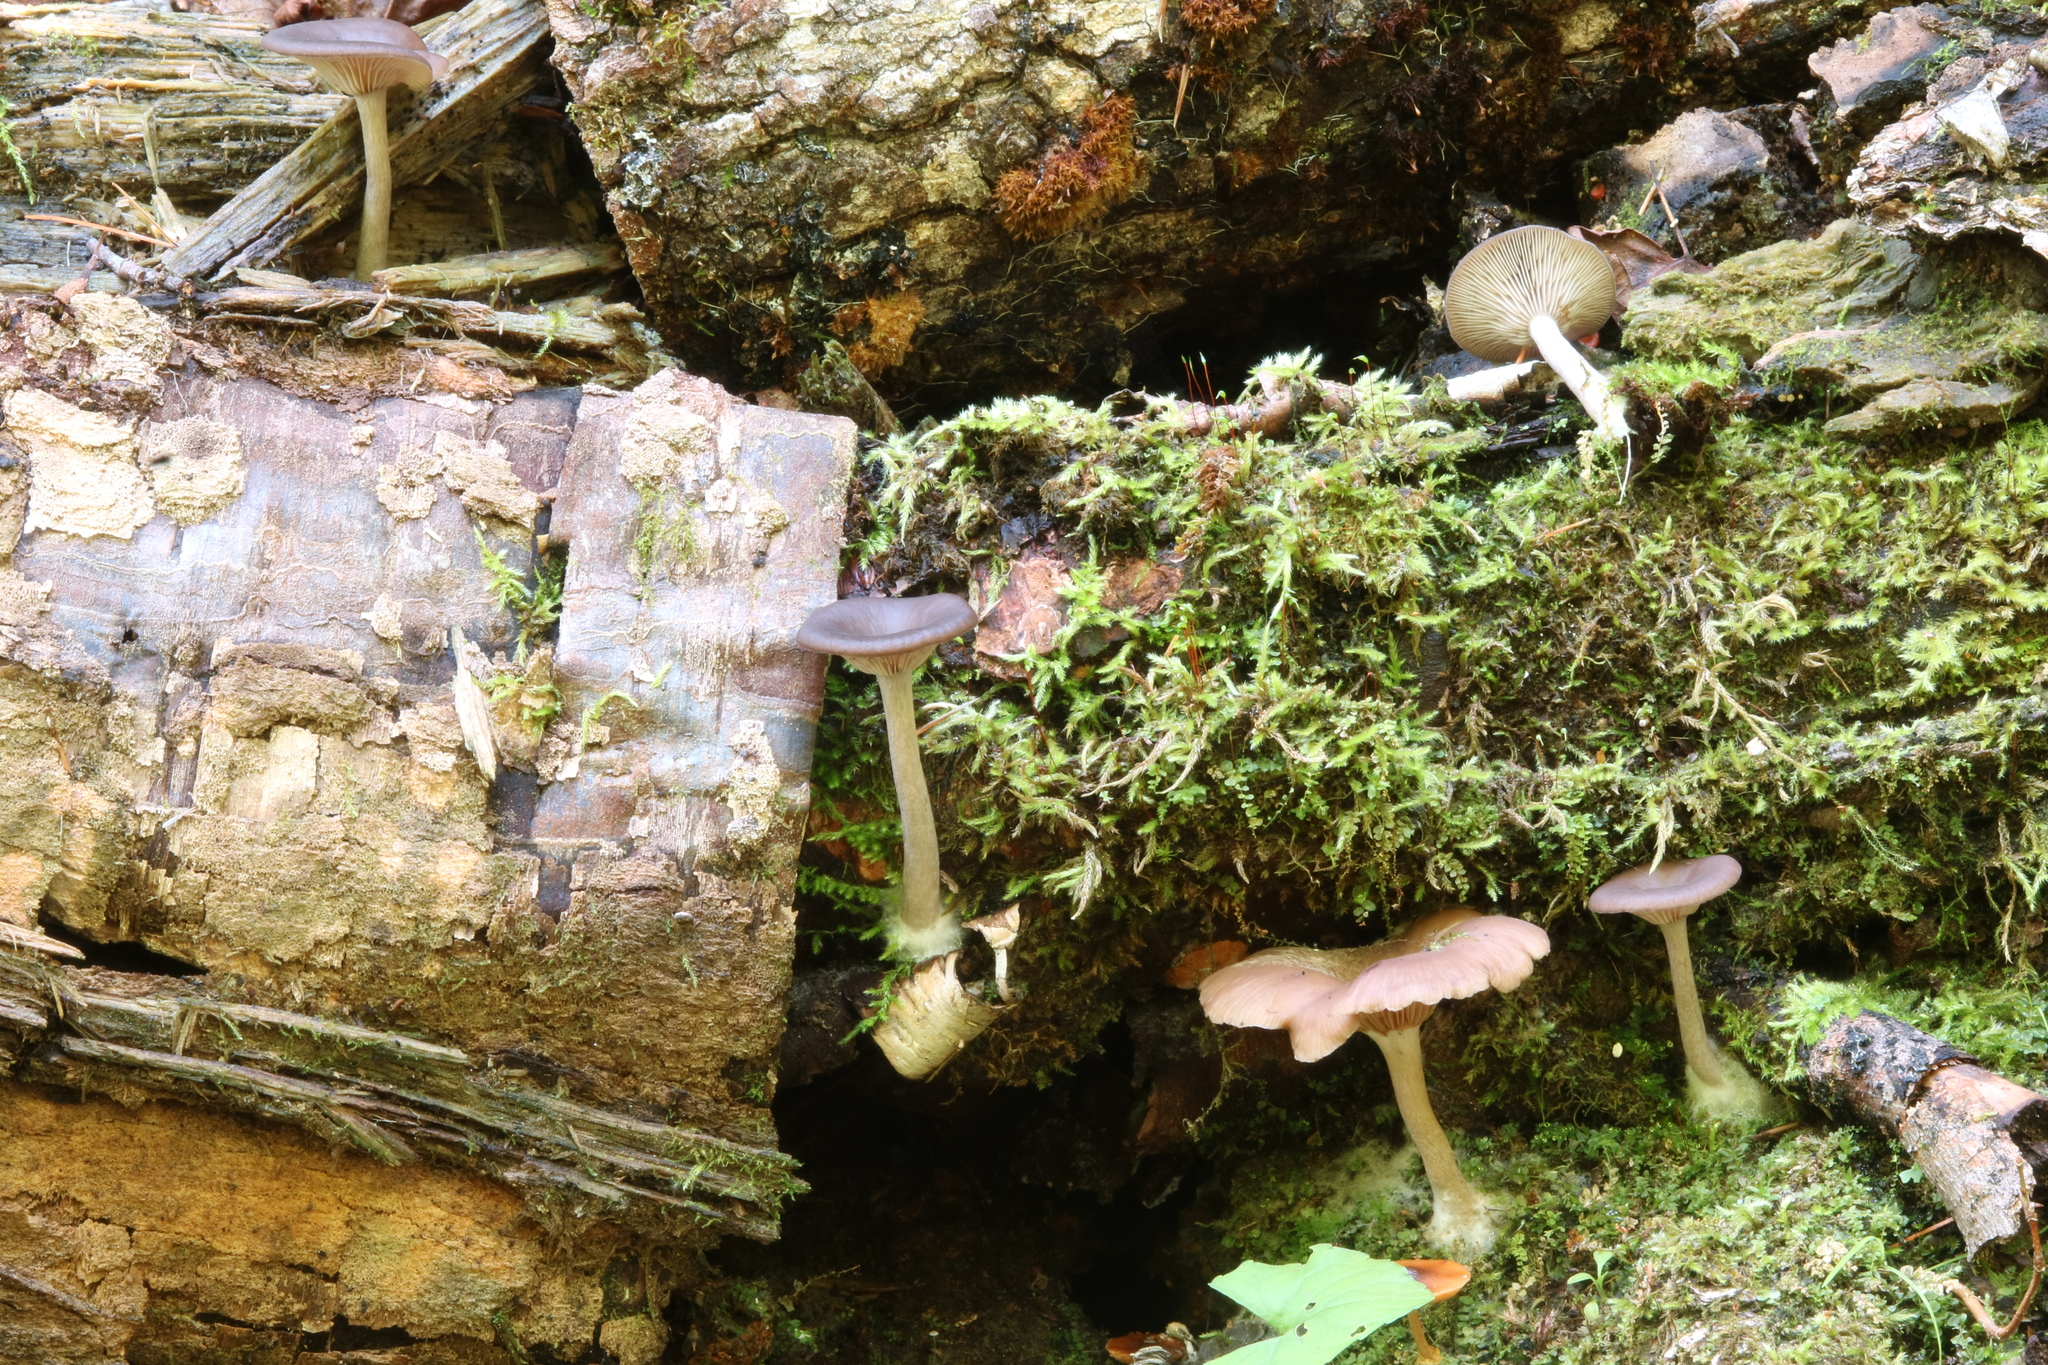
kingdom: Fungi
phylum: Basidiomycota
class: Agaricomycetes
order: Agaricales
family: Pseudoclitocybaceae
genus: Pseudoclitocybe
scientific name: Pseudoclitocybe cyathiformis
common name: Goblet
